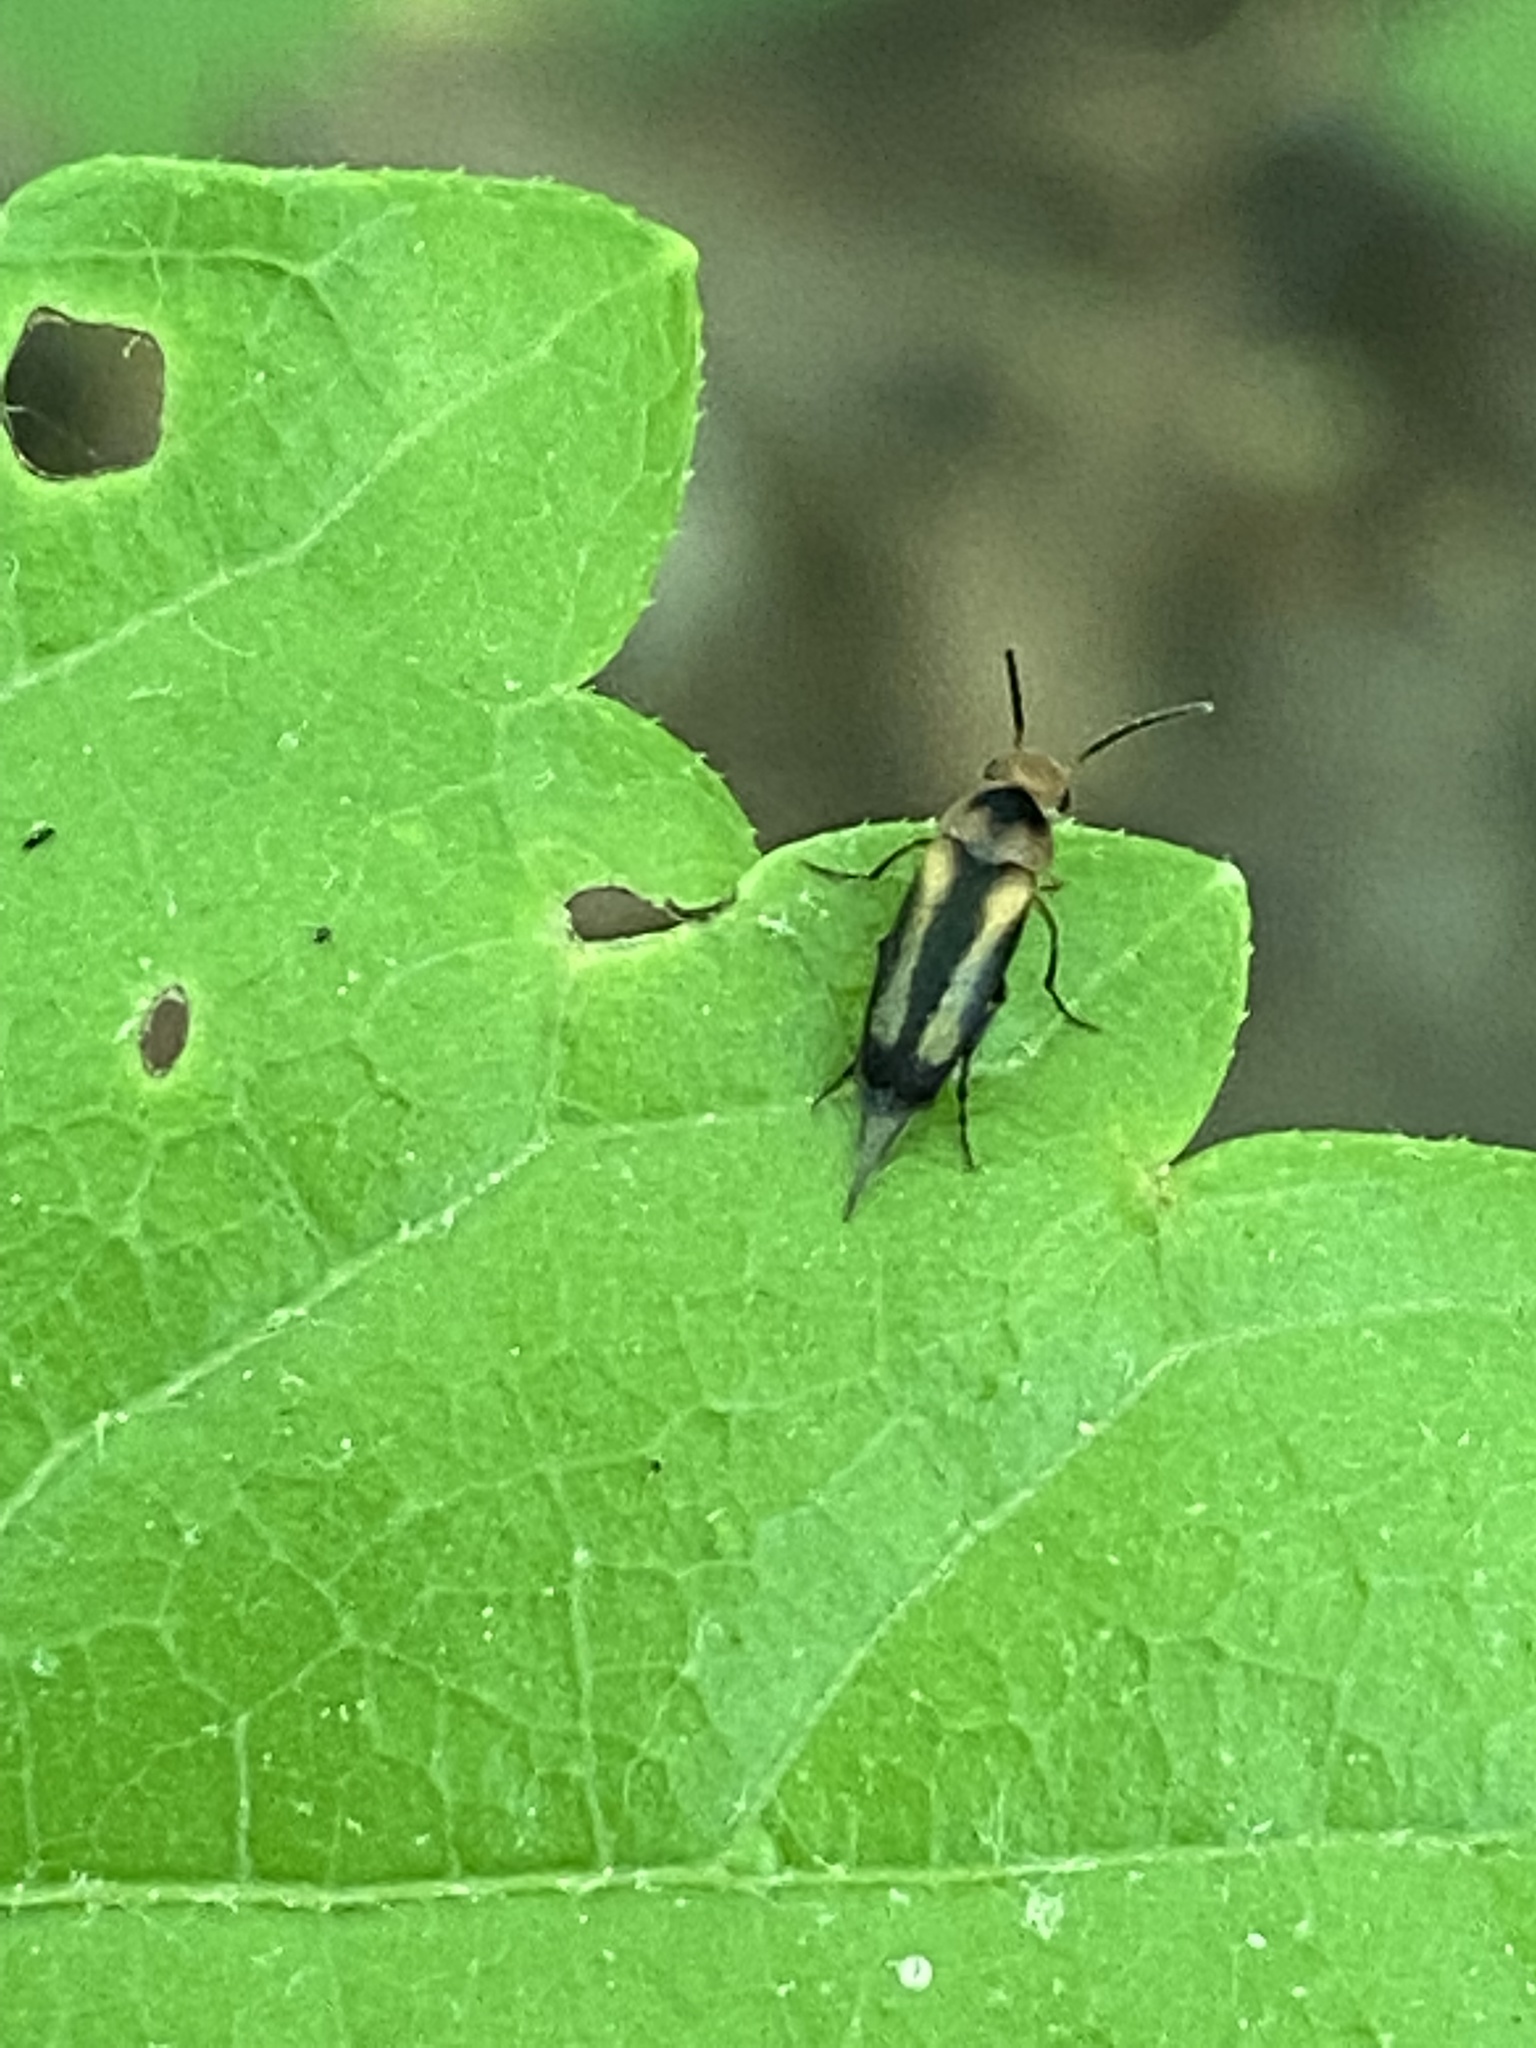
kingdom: Animalia
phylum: Arthropoda
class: Insecta
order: Coleoptera
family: Mordellidae
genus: Mordellistena
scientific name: Mordellistena attenuata
